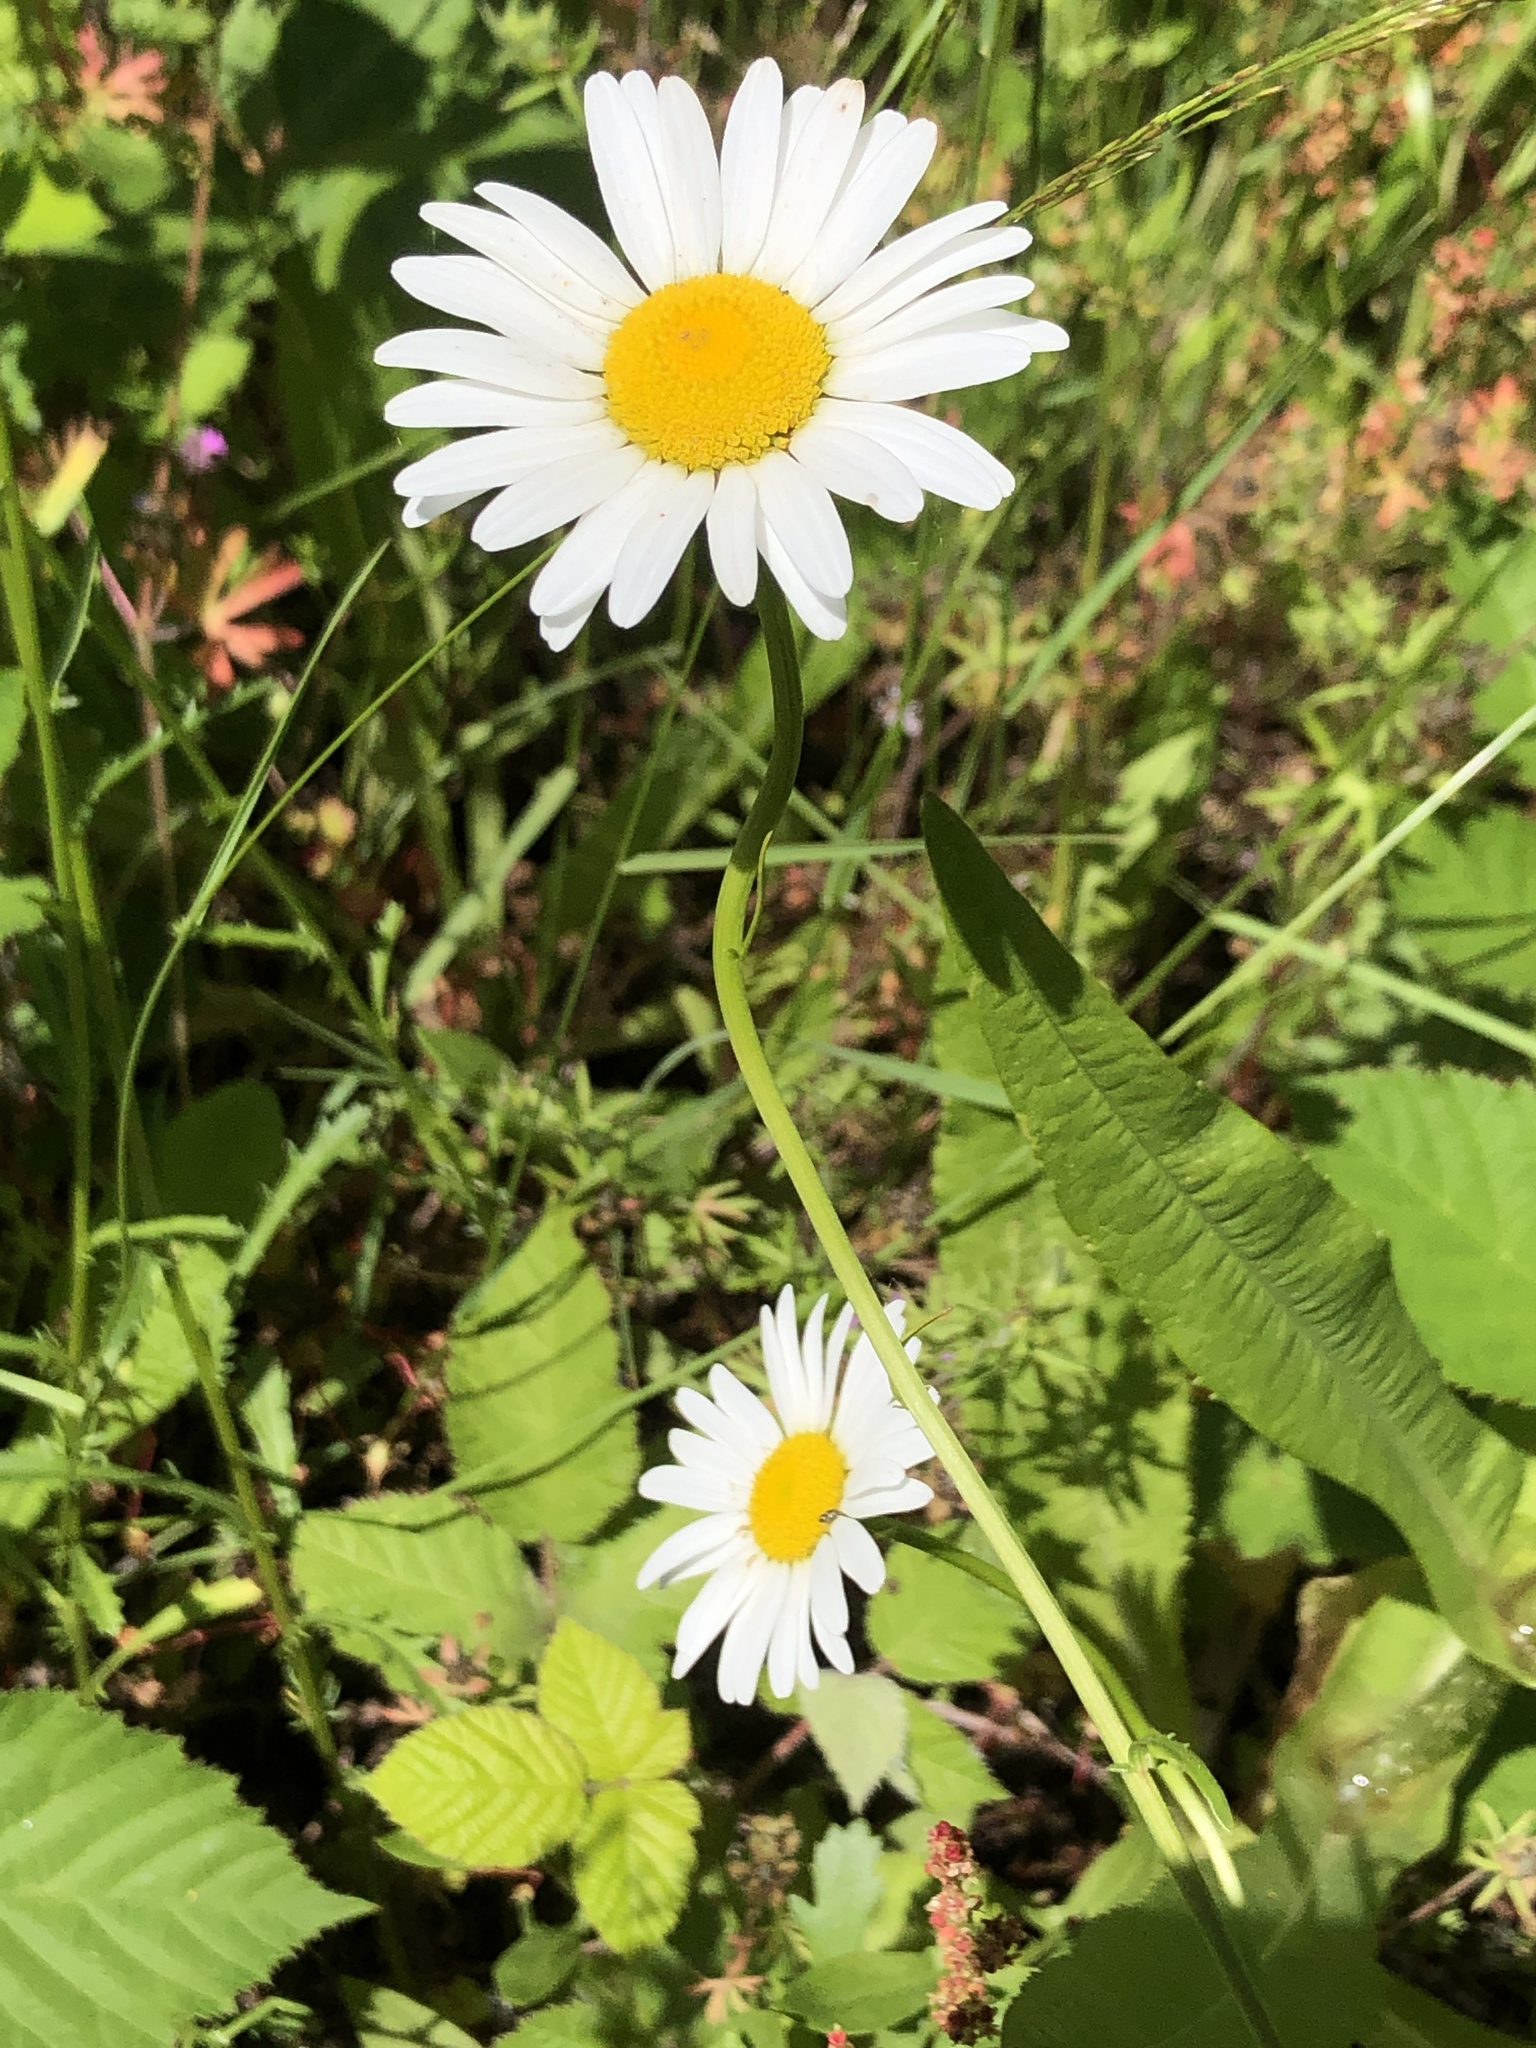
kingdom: Plantae
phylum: Tracheophyta
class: Magnoliopsida
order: Asterales
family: Asteraceae
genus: Leucanthemum
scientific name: Leucanthemum vulgare
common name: Oxeye daisy
